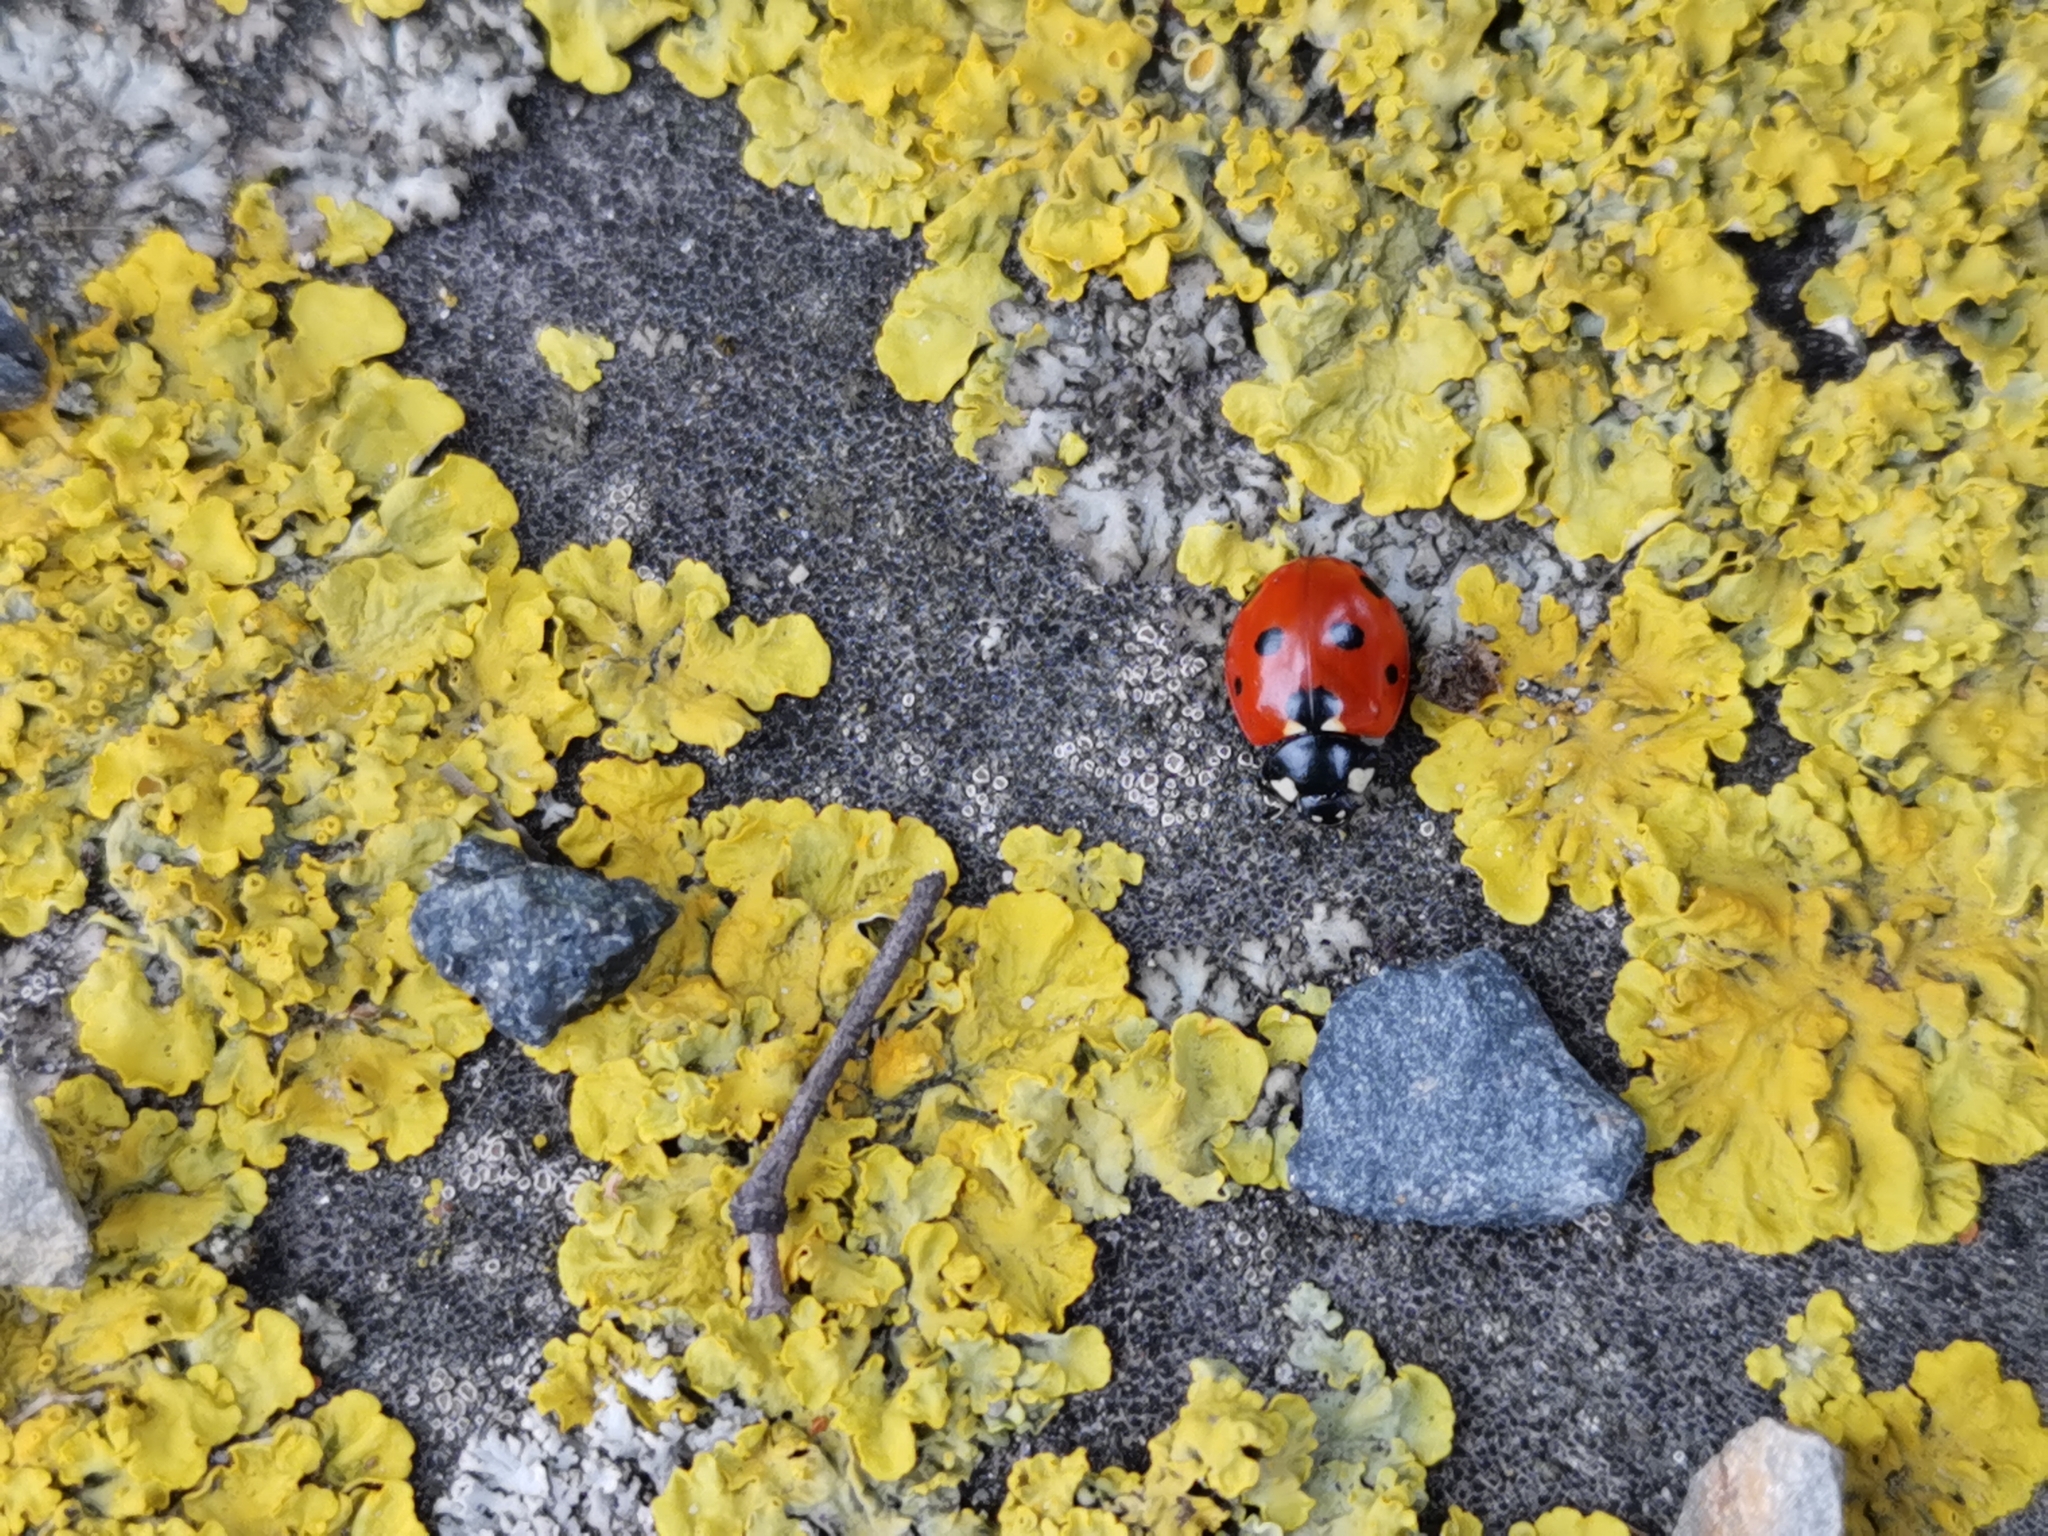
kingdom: Animalia
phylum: Arthropoda
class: Insecta
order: Coleoptera
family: Coccinellidae
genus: Coccinella
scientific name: Coccinella septempunctata
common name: Sevenspotted lady beetle
